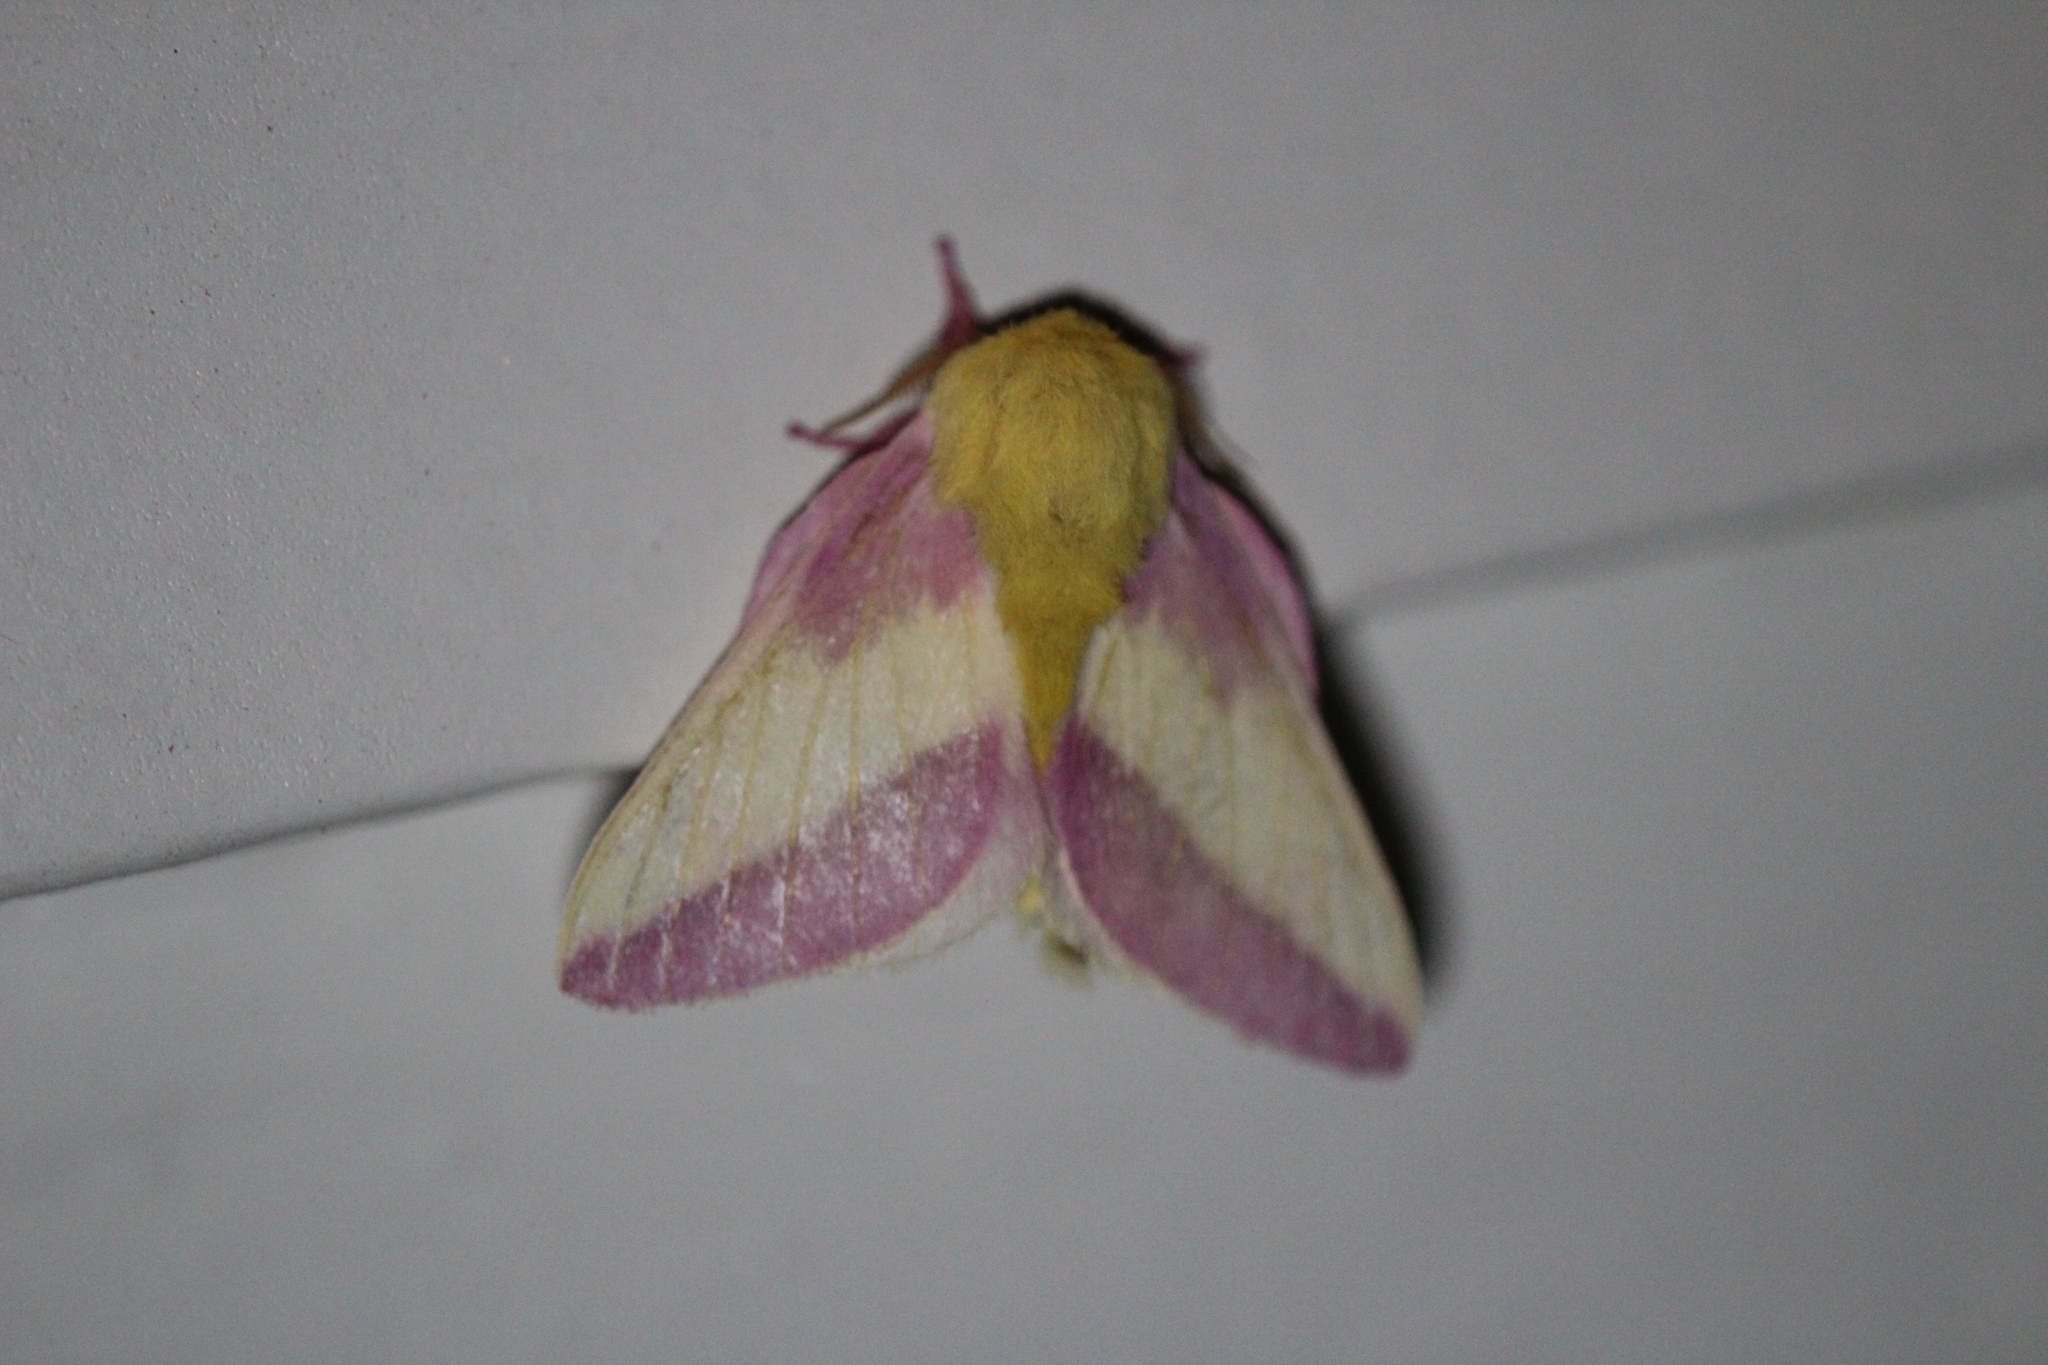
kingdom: Animalia
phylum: Arthropoda
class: Insecta
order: Lepidoptera
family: Saturniidae
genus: Dryocampa
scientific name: Dryocampa rubicunda
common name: Rosy maple moth
